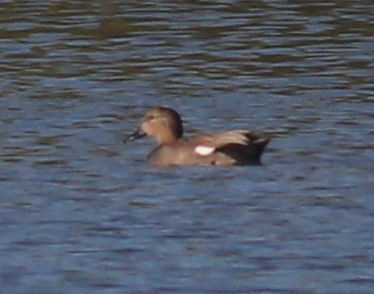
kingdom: Animalia
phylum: Chordata
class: Aves
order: Anseriformes
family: Anatidae
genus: Mareca
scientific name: Mareca strepera
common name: Gadwall
